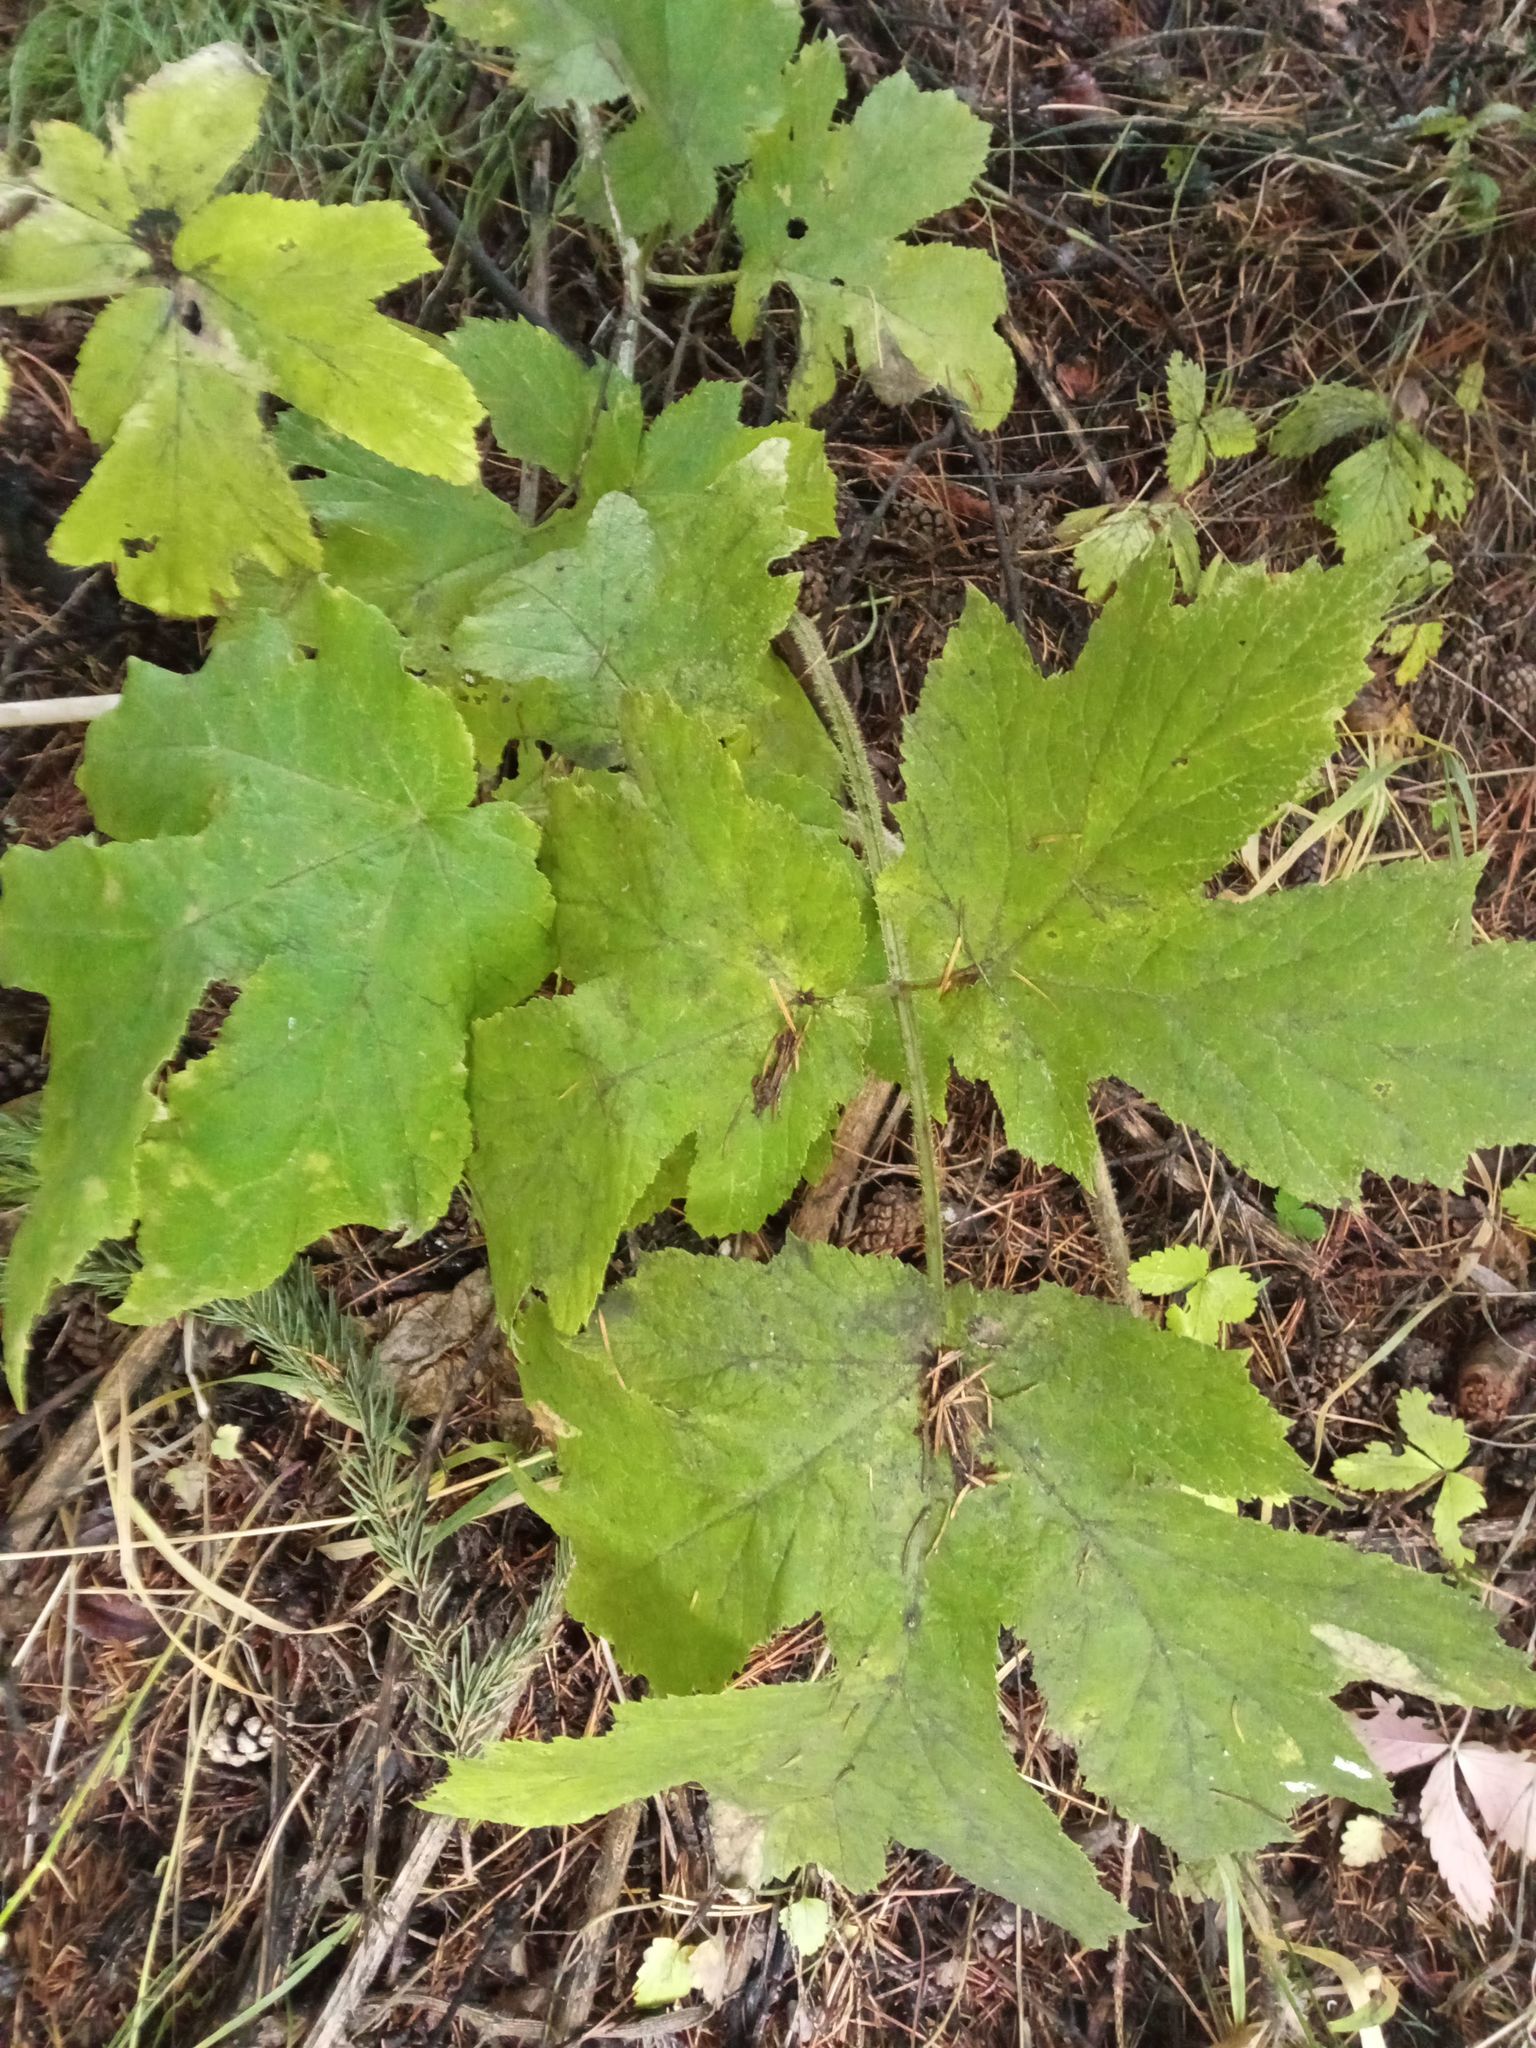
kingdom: Plantae
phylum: Tracheophyta
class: Magnoliopsida
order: Apiales
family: Apiaceae
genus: Heracleum
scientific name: Heracleum sphondylium
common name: Hogweed
